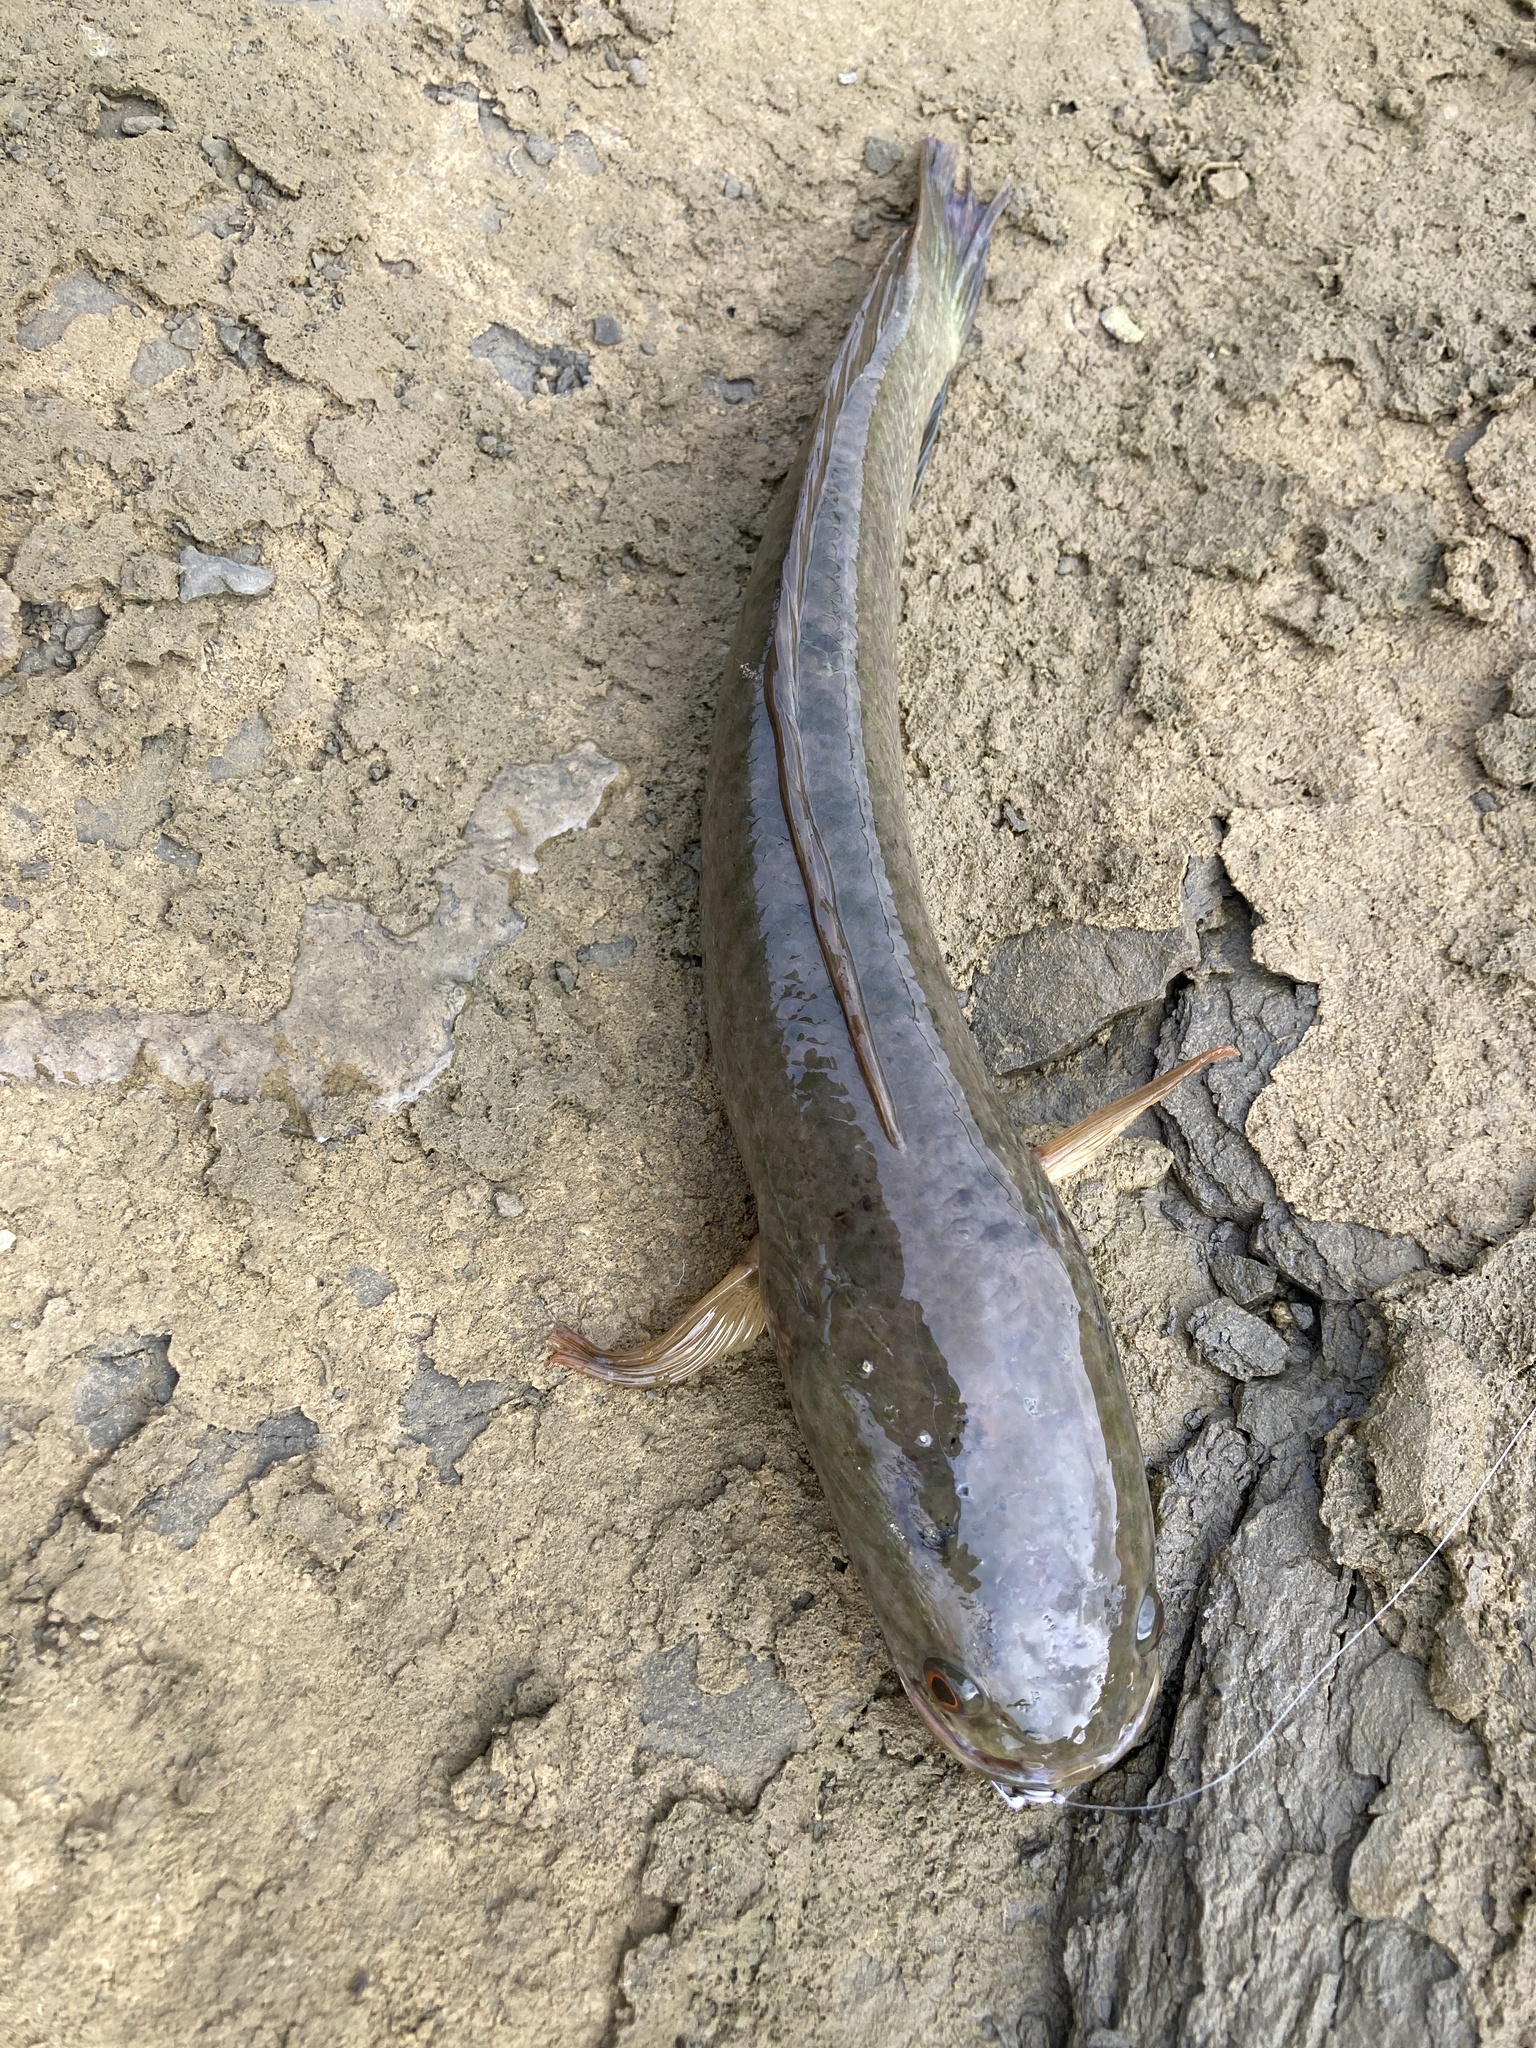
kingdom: Animalia
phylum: Chordata
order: Perciformes
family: Channidae
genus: Channa
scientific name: Channa striata
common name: Striped snakehead
